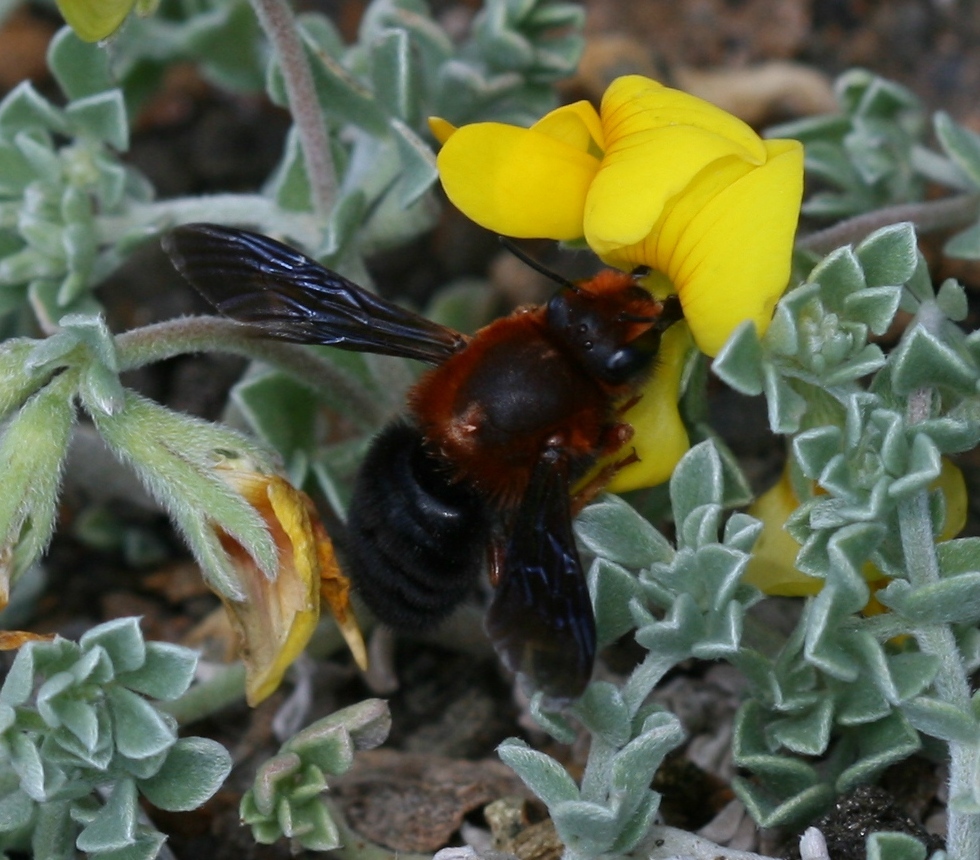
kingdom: Animalia
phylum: Arthropoda
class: Insecta
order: Hymenoptera
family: Megachilidae
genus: Megachile
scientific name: Megachile sicula
